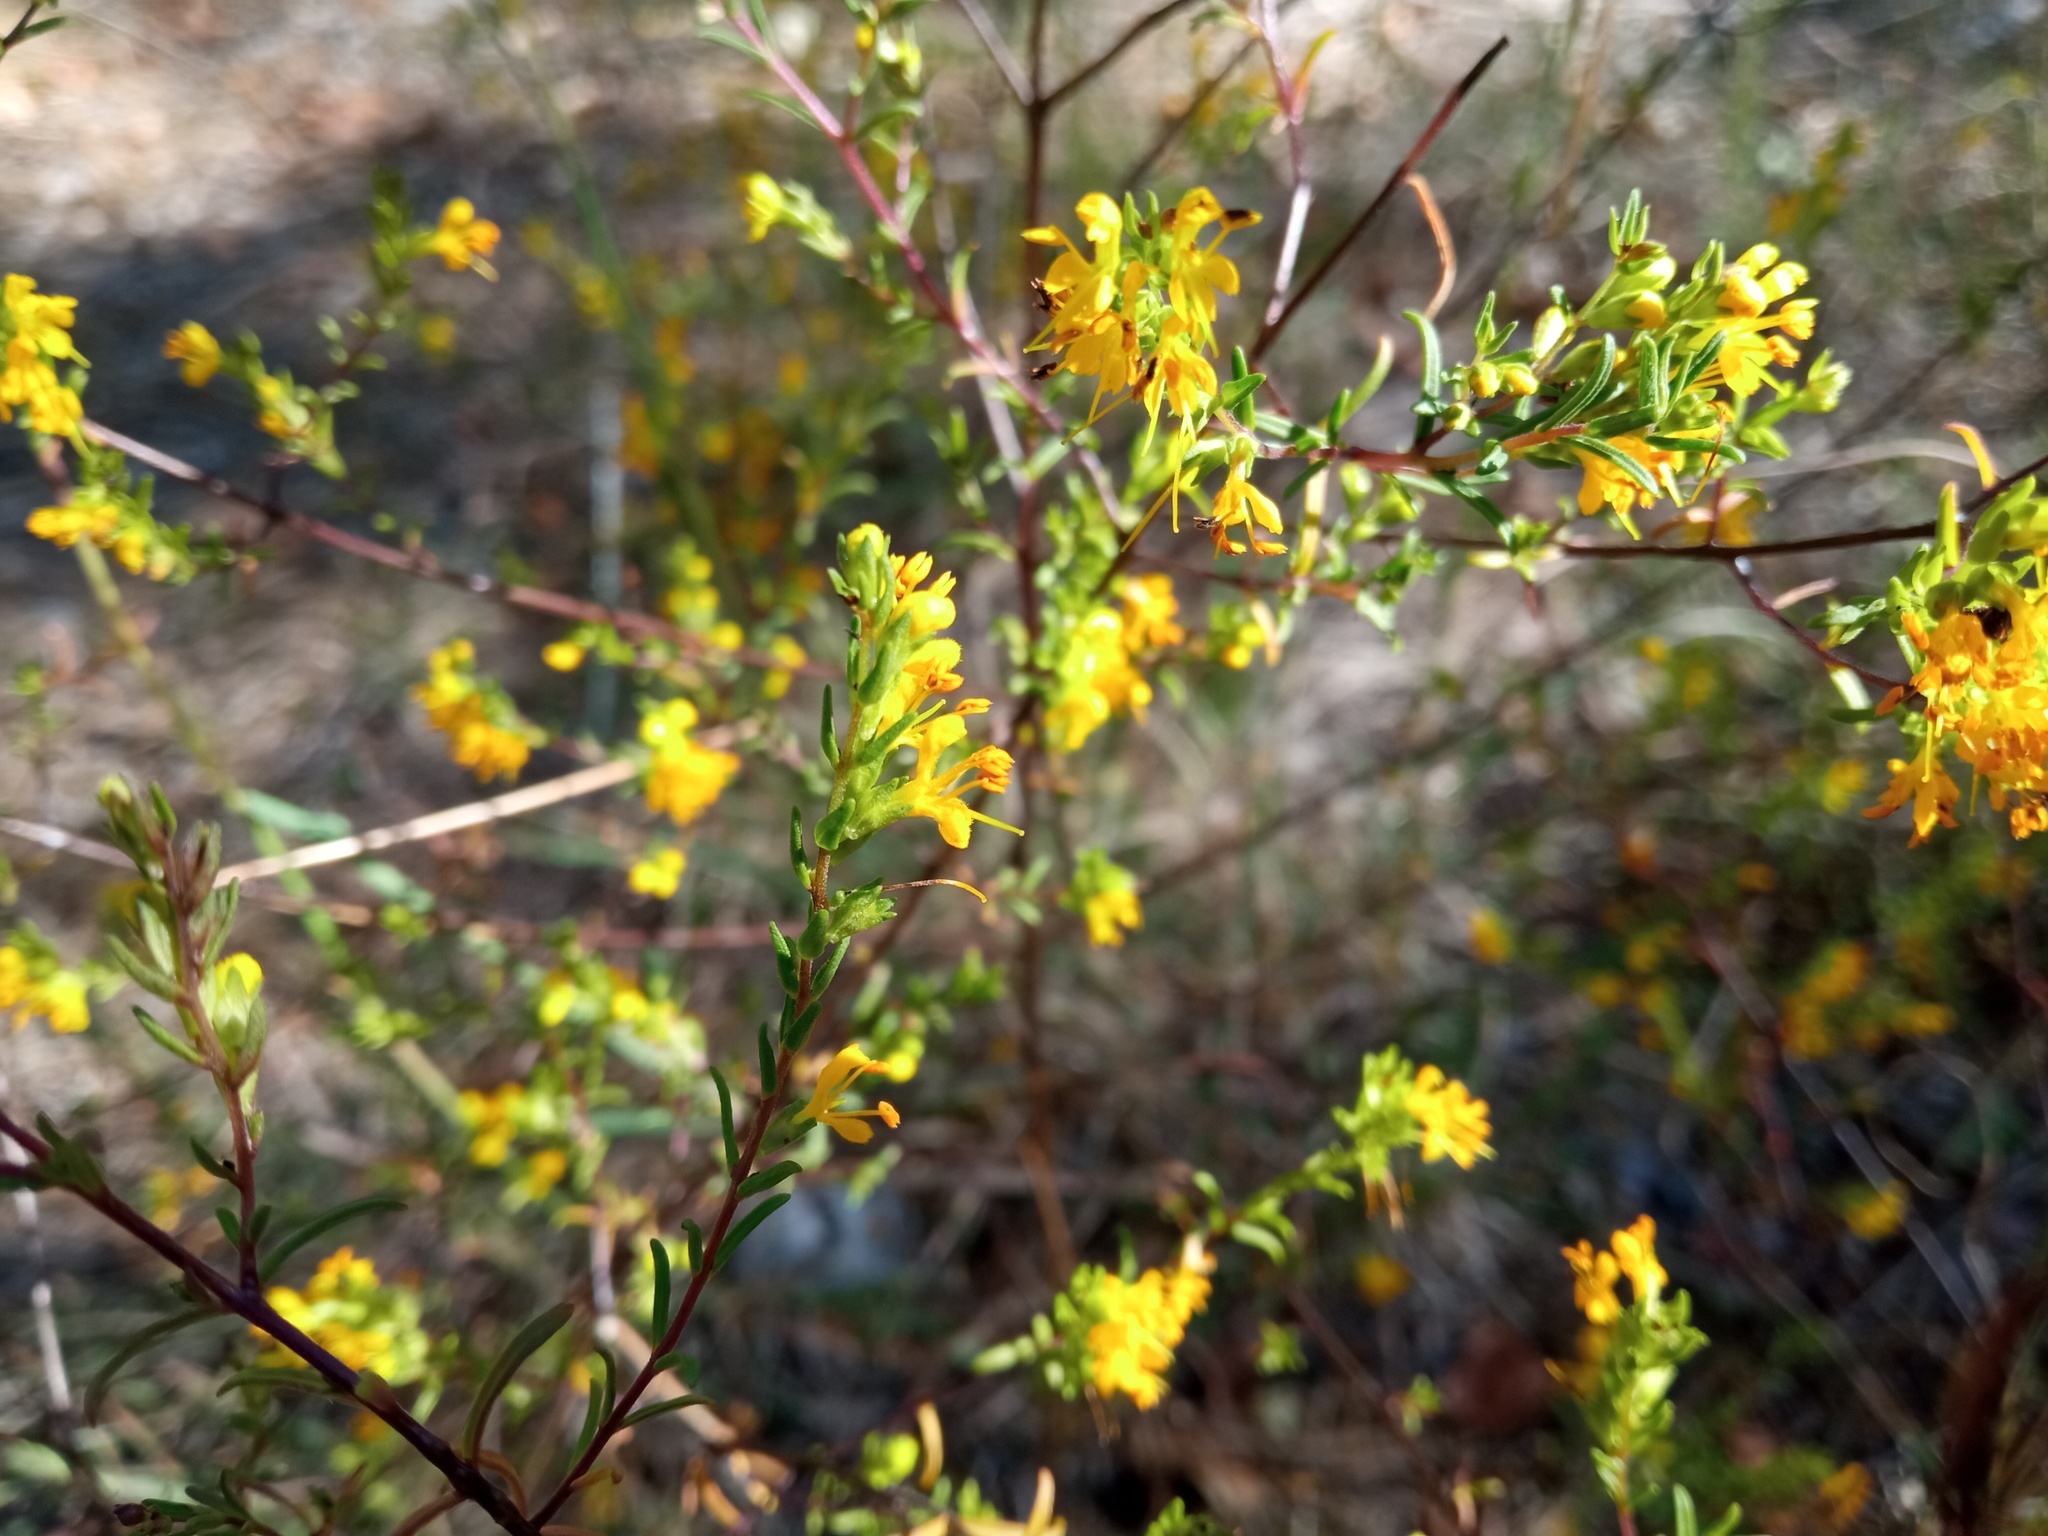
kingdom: Plantae
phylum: Tracheophyta
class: Magnoliopsida
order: Lamiales
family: Orobanchaceae
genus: Odontites
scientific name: Odontites luteus
